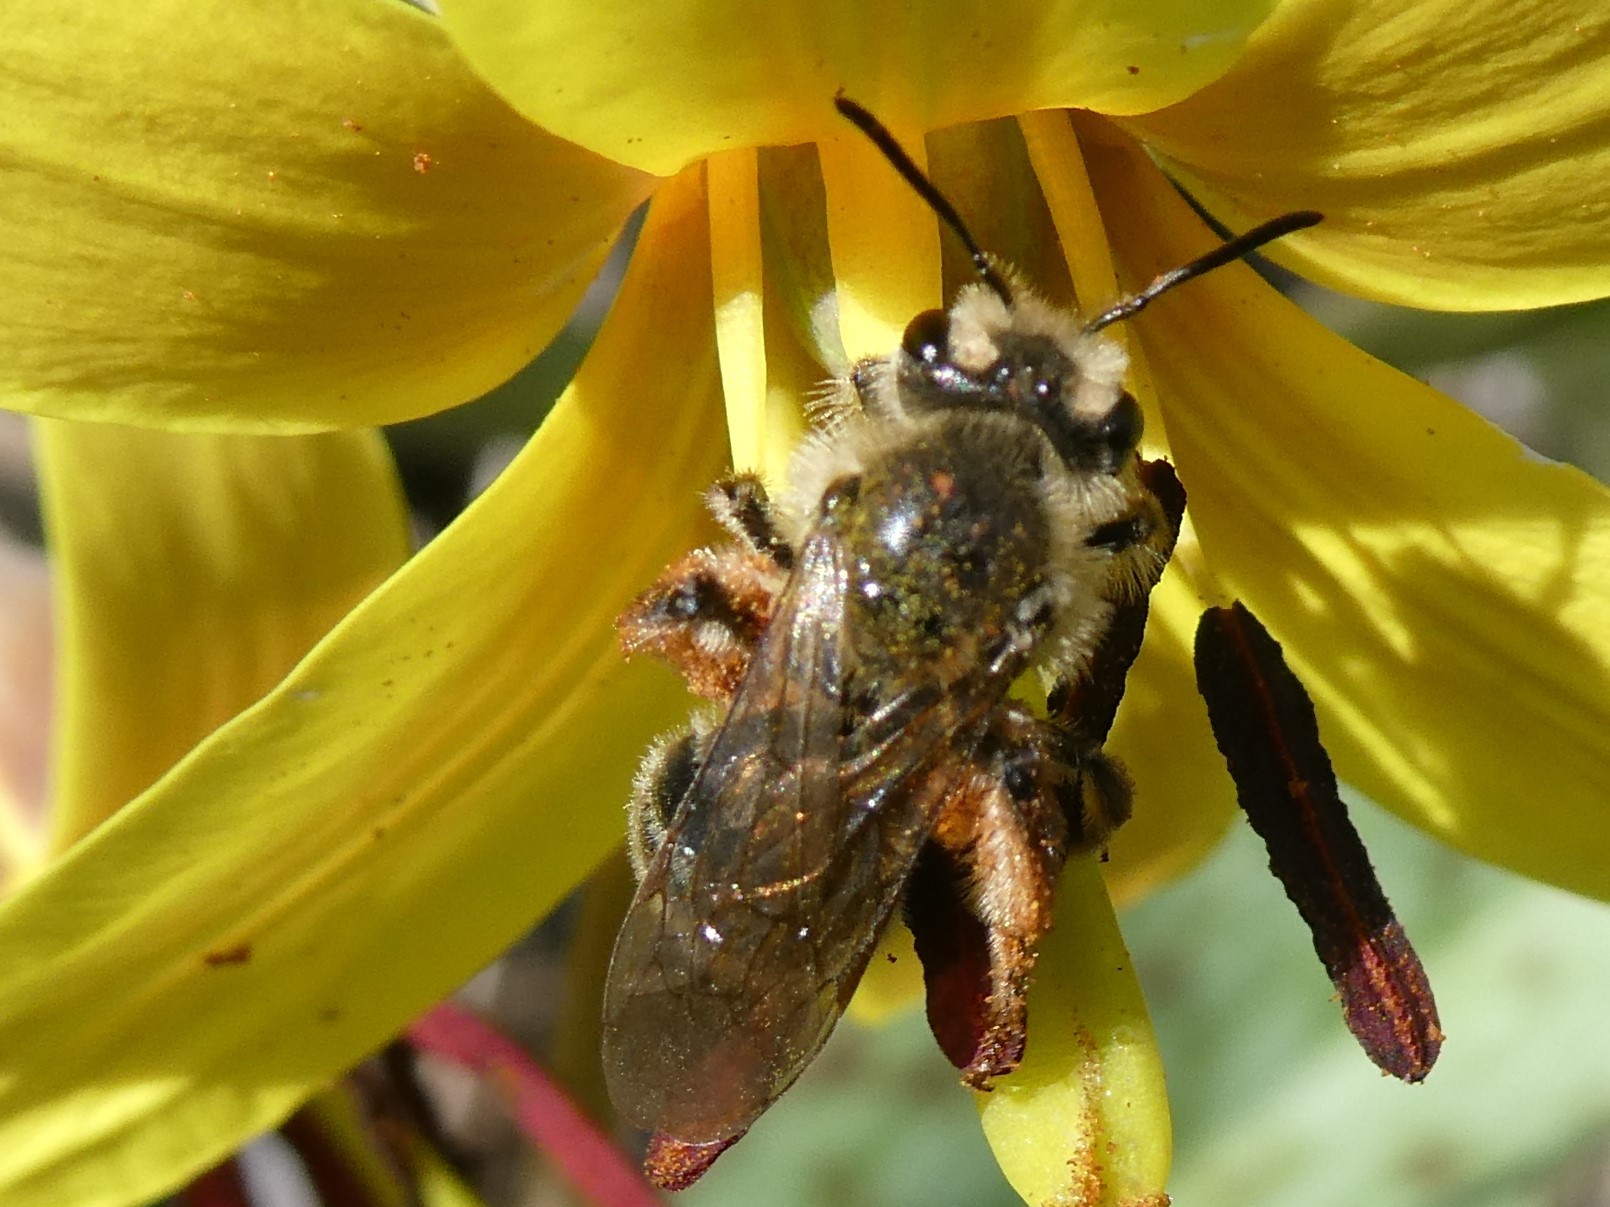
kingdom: Animalia
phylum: Arthropoda
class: Insecta
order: Hymenoptera
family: Andrenidae
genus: Andrena
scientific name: Andrena erythronii
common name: Trout-lily mining bee
